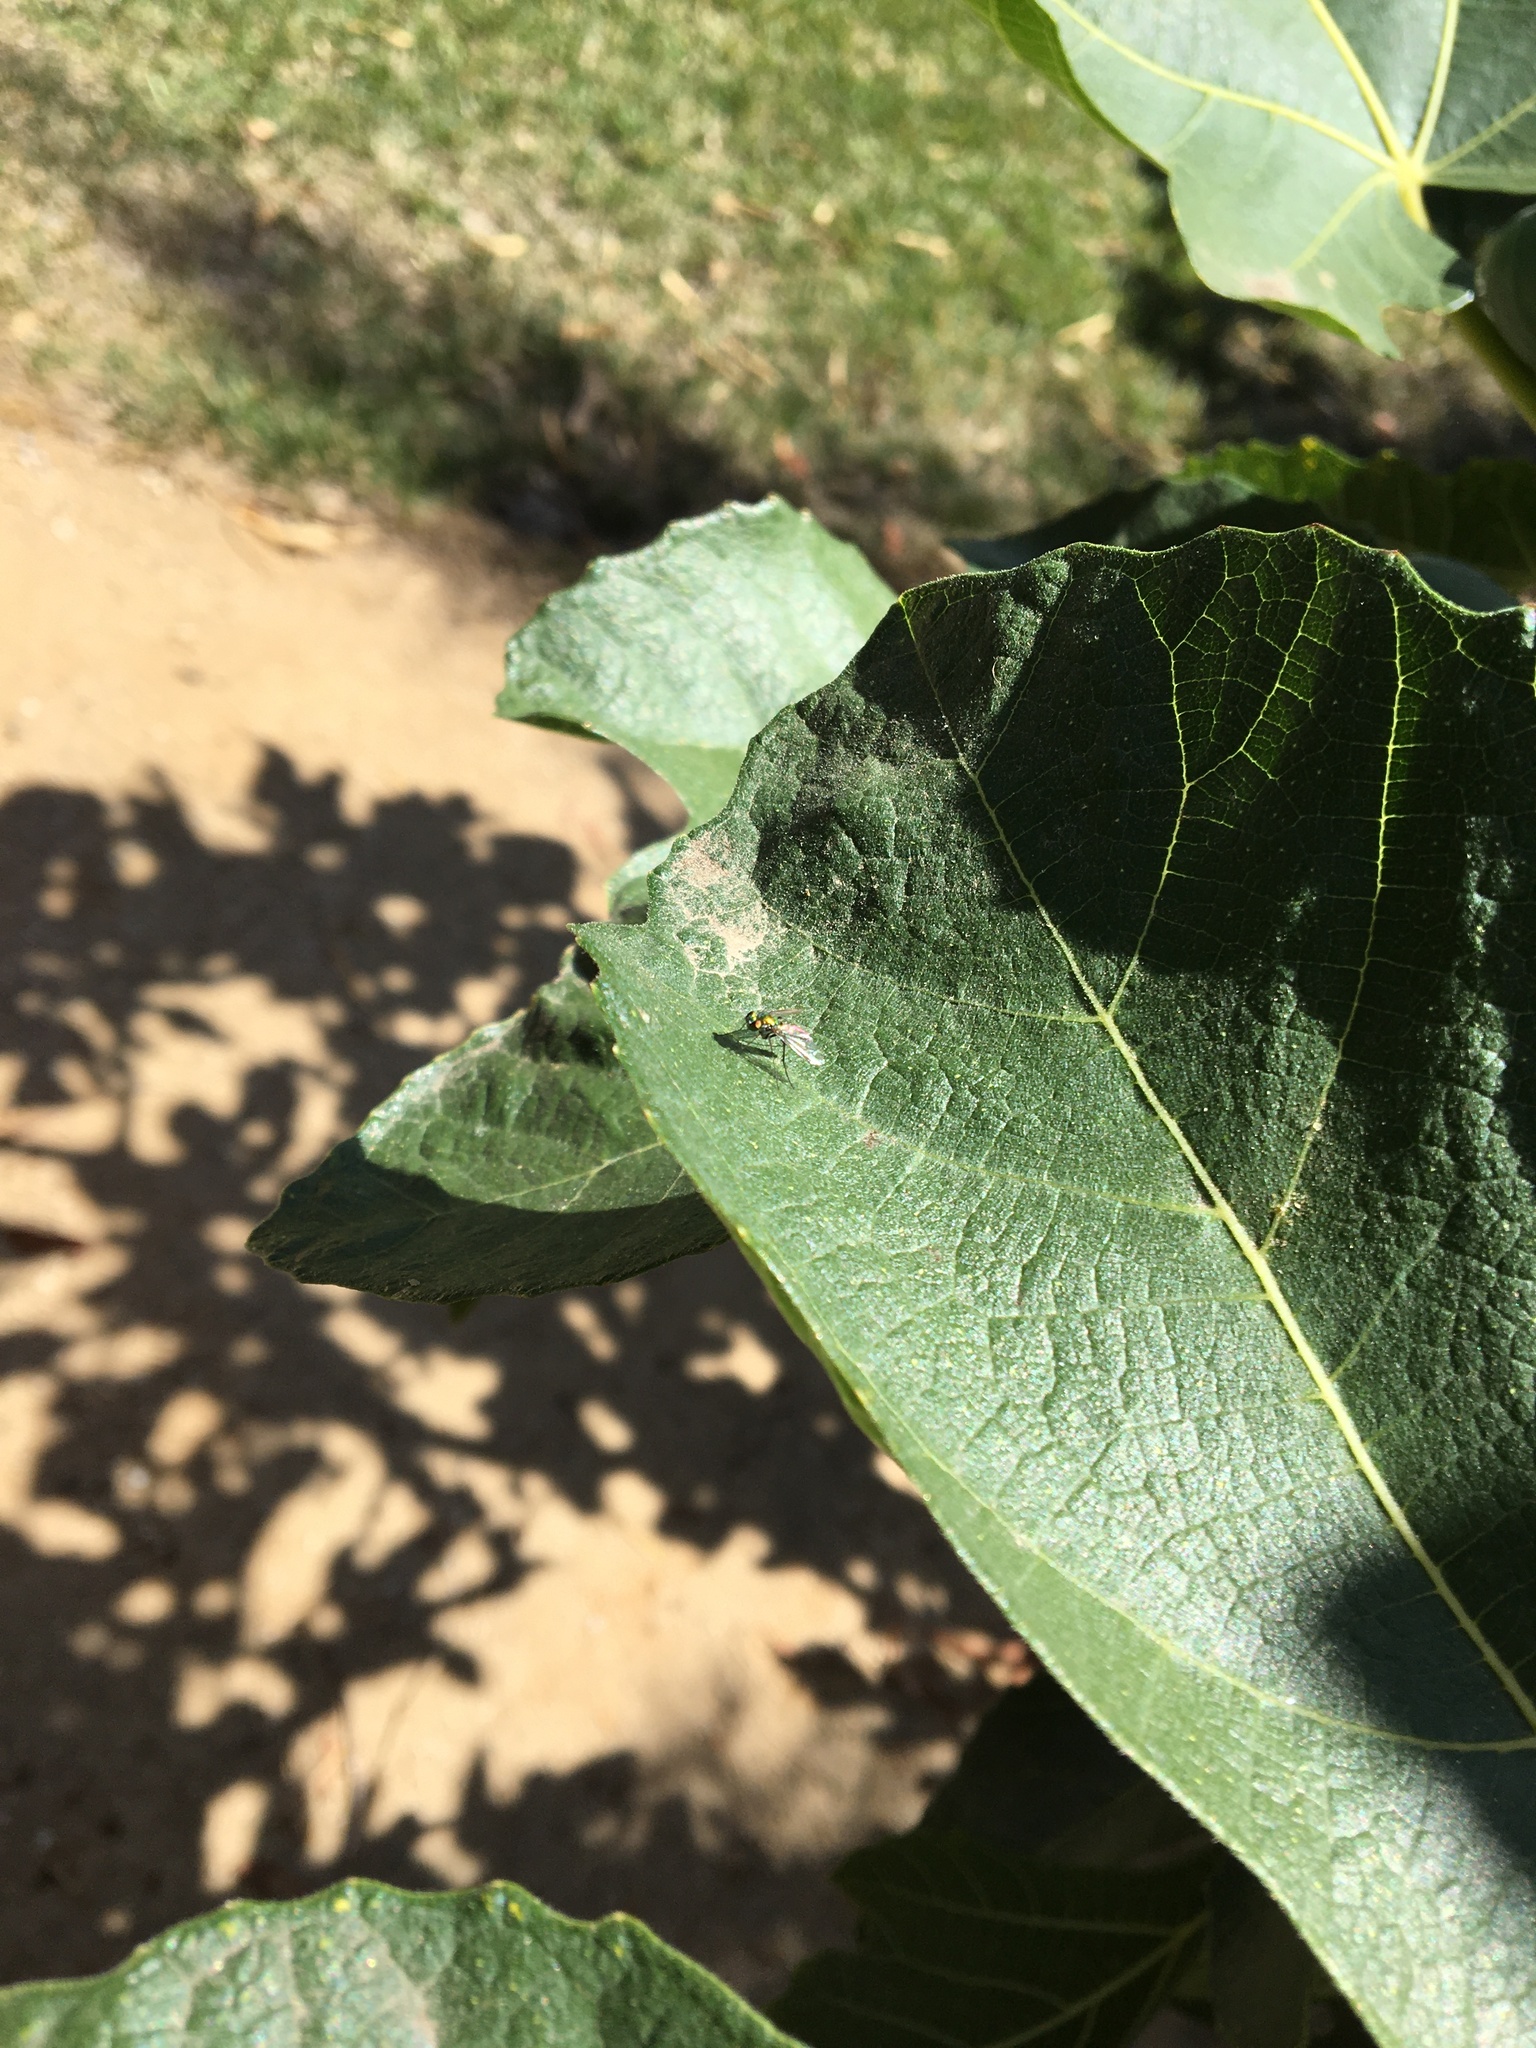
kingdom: Animalia
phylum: Arthropoda
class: Insecta
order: Diptera
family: Dolichopodidae
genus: Condylostylus
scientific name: Condylostylus longicornis
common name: Long-legged fly
